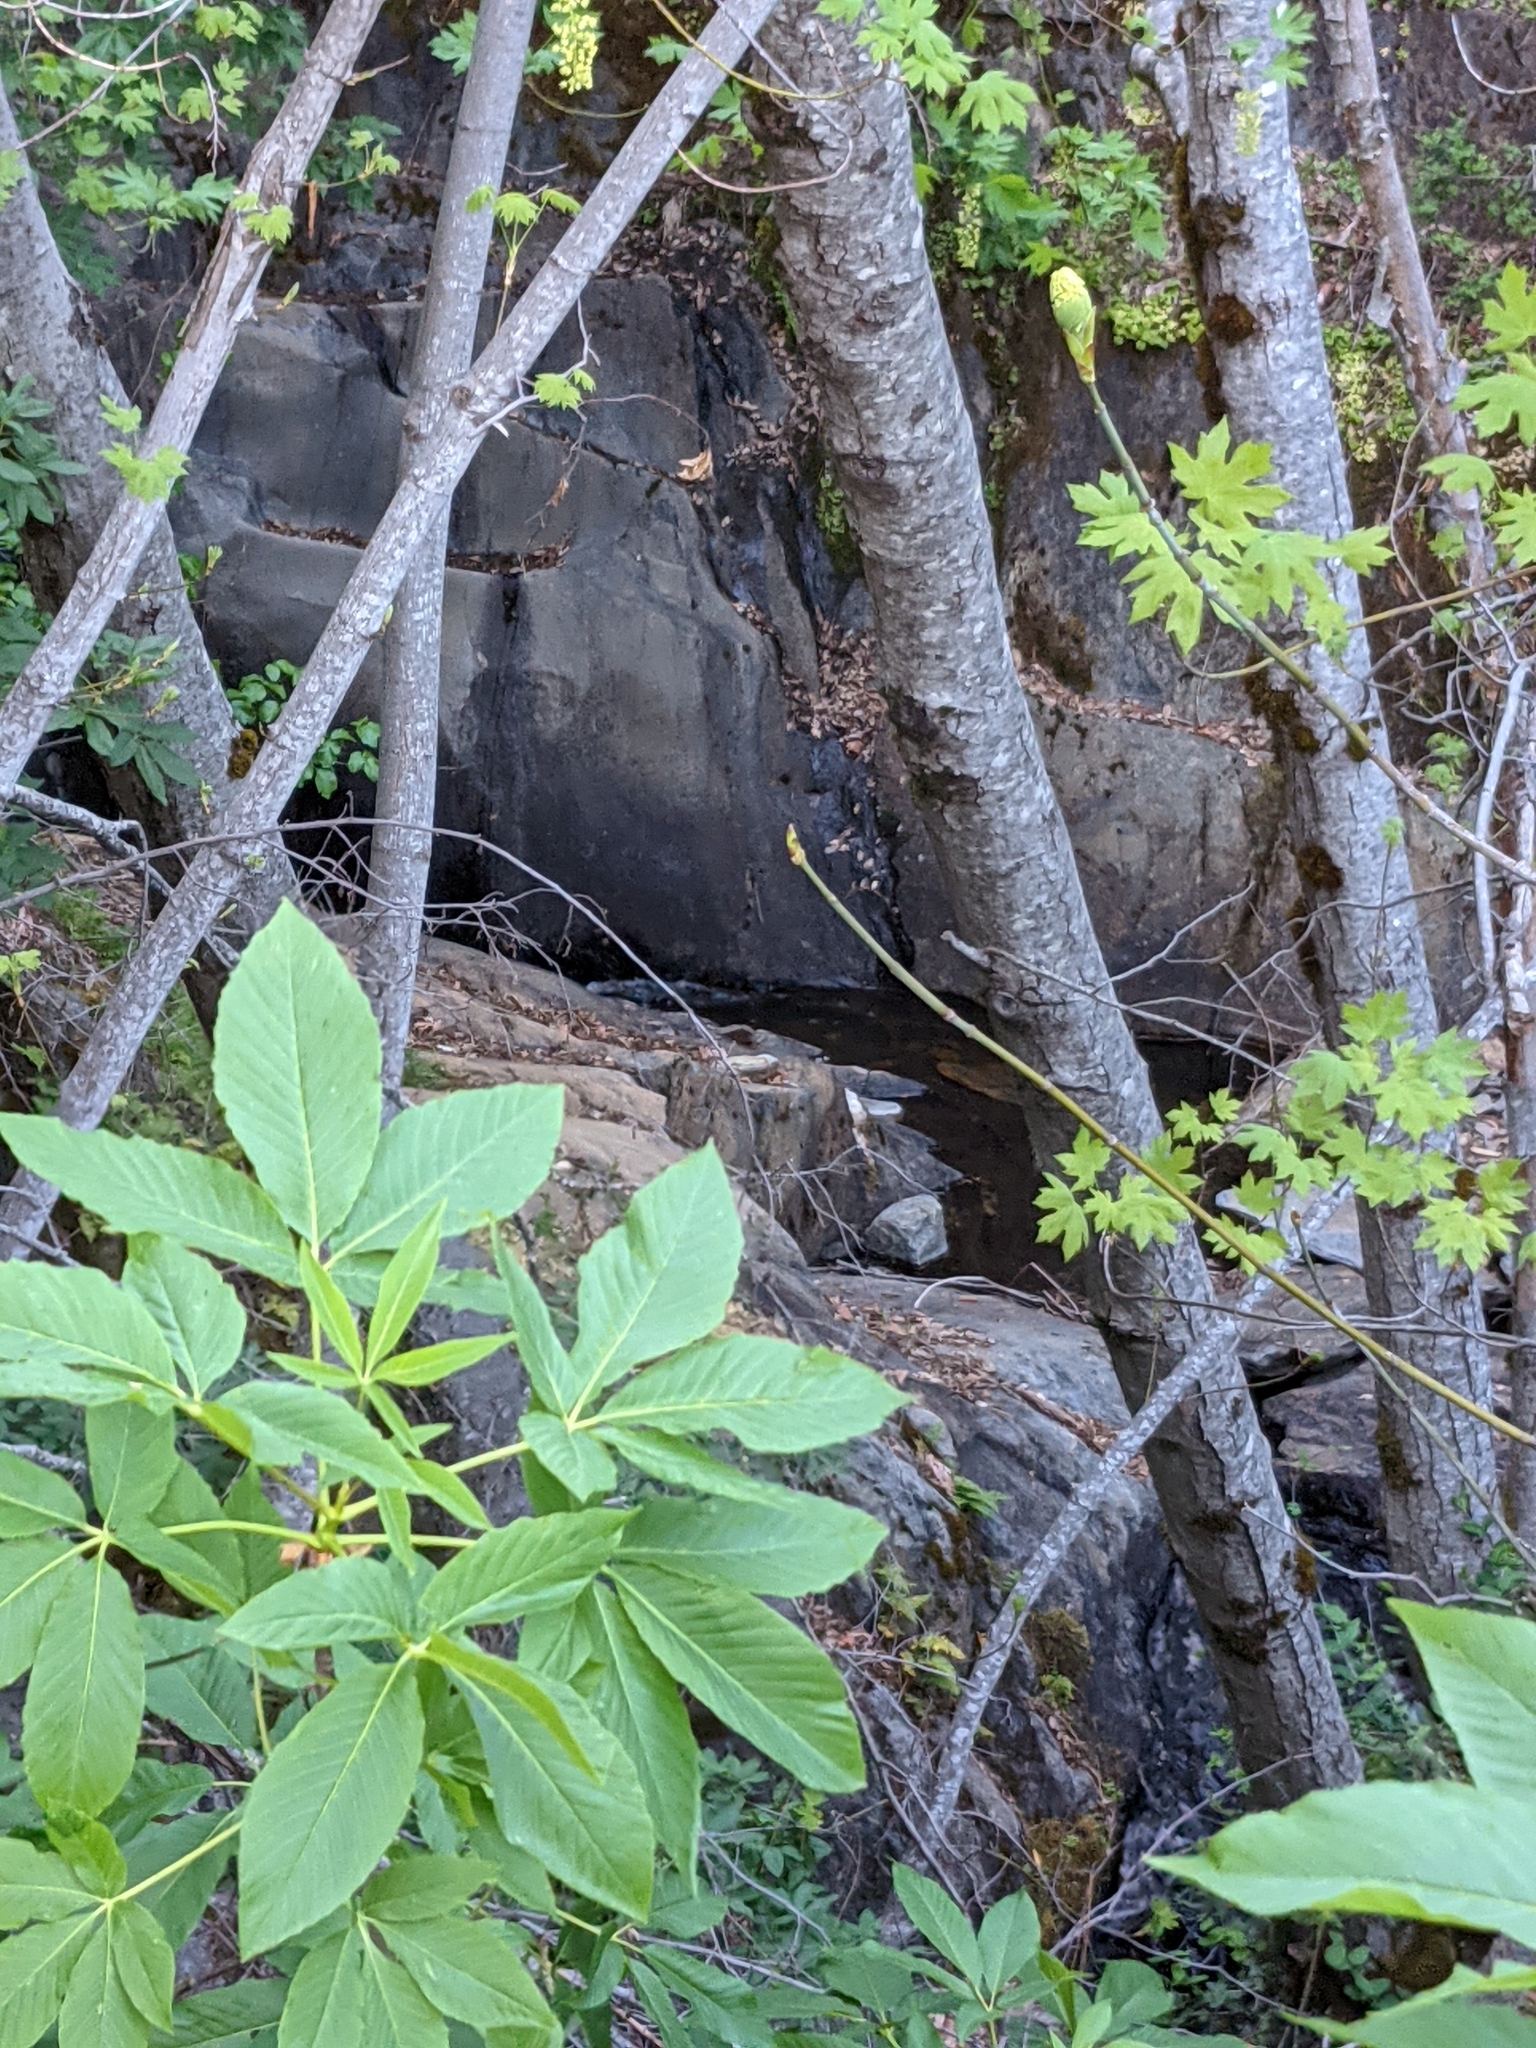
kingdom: Plantae
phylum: Tracheophyta
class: Magnoliopsida
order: Sapindales
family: Sapindaceae
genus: Aesculus
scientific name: Aesculus californica
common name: California buckeye
